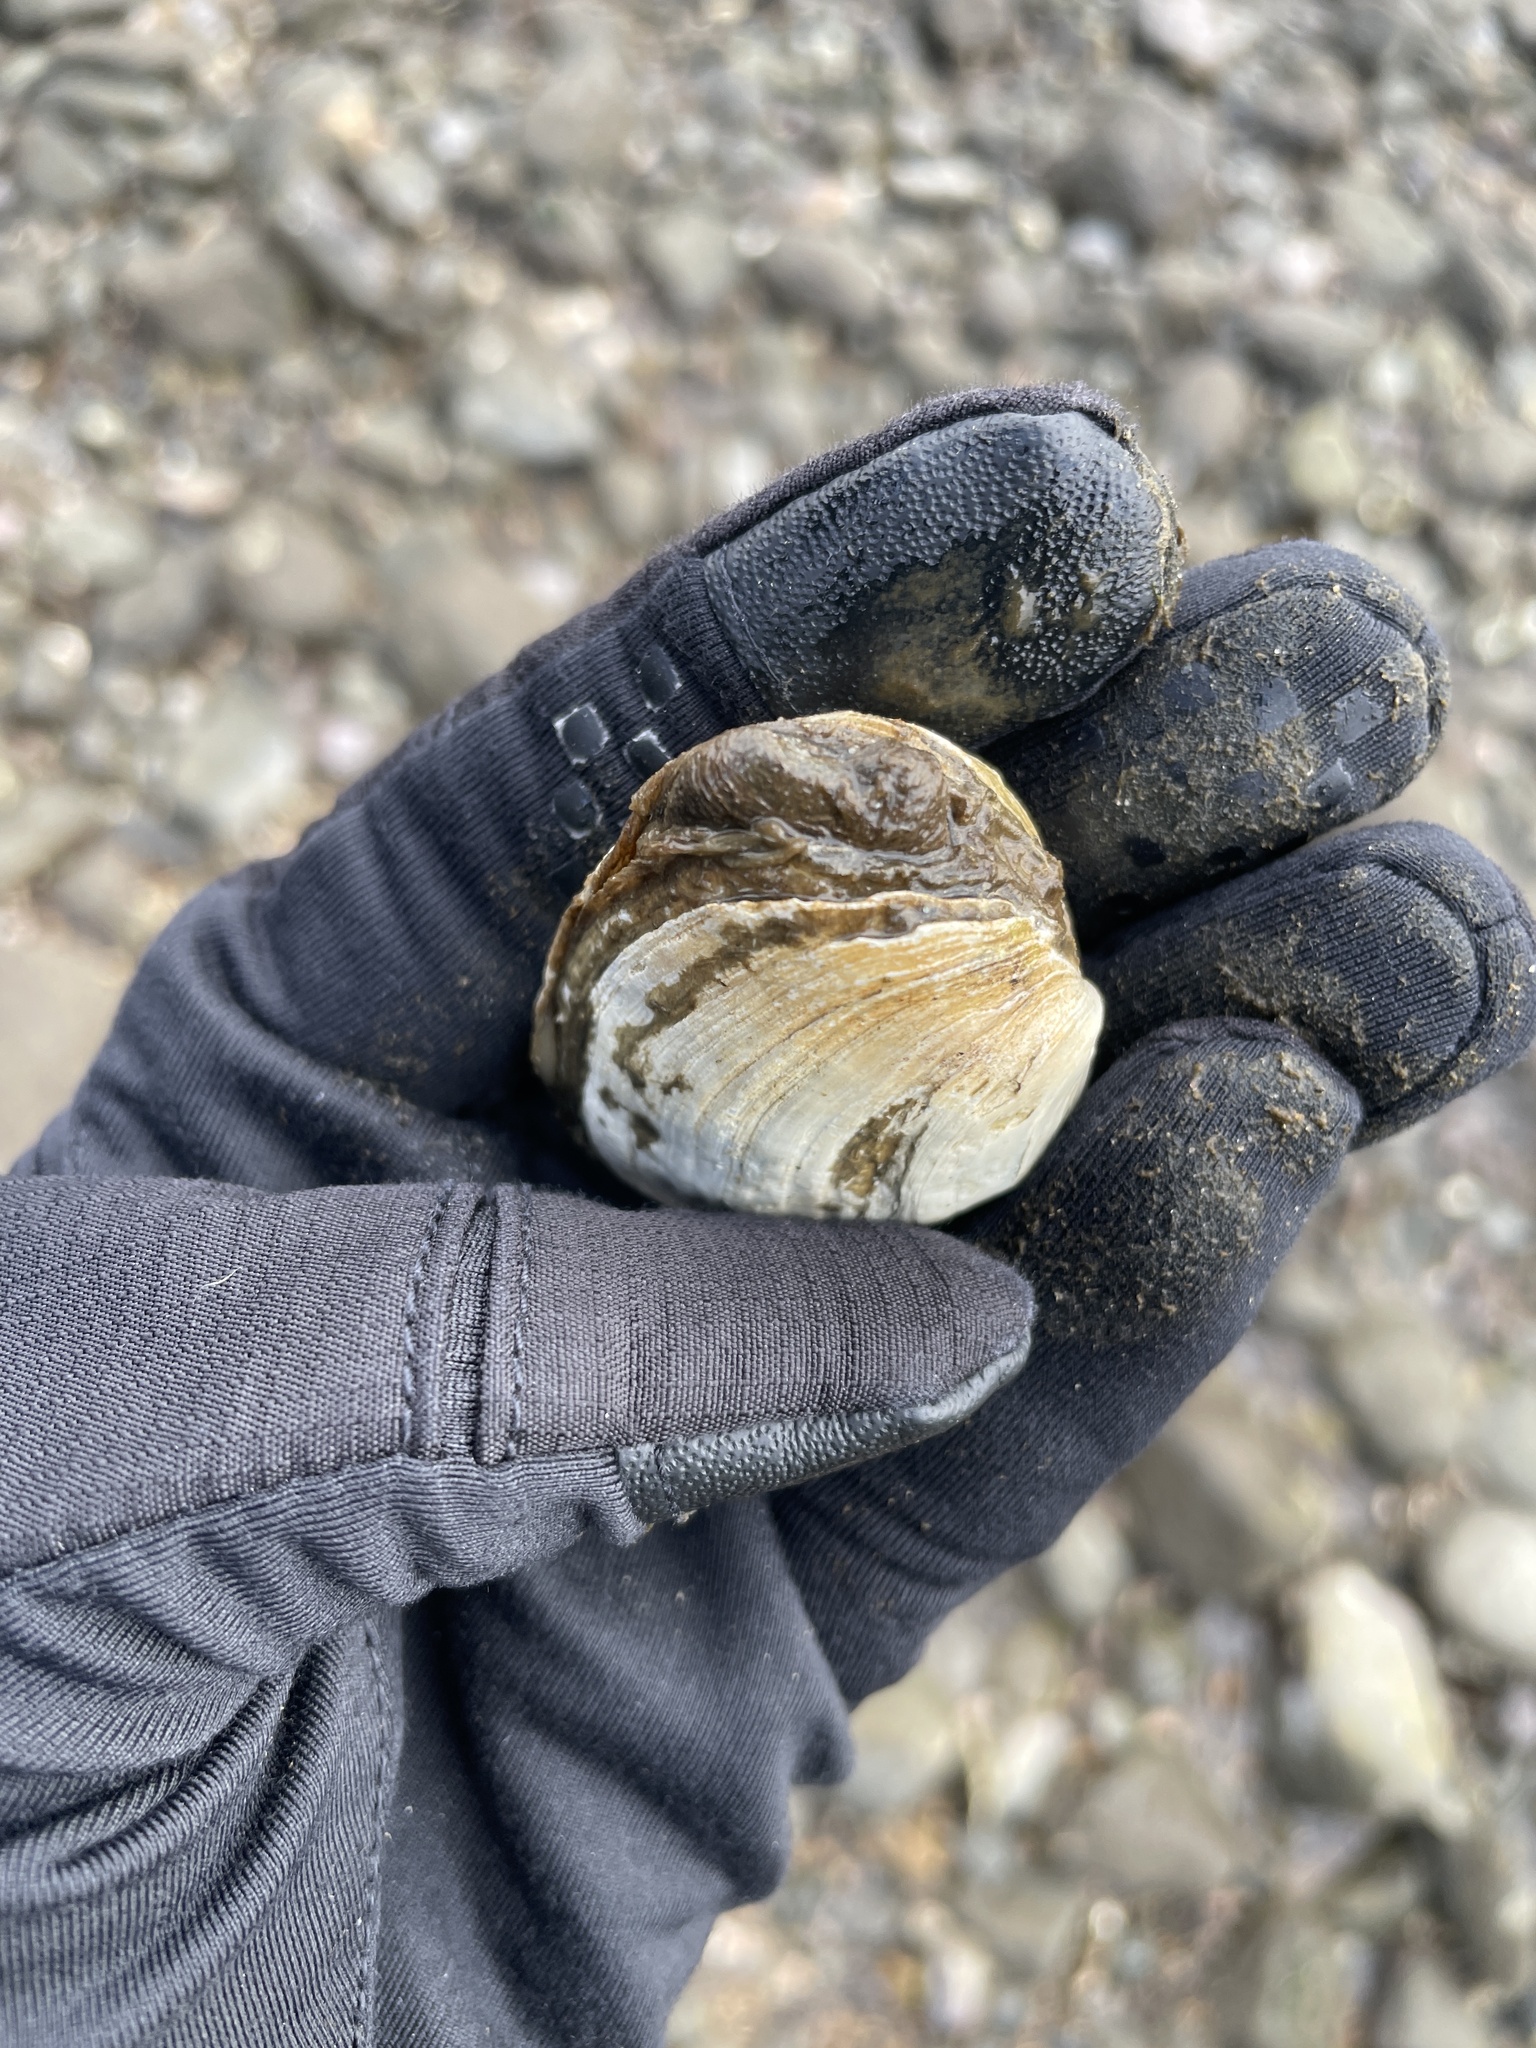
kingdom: Animalia
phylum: Mollusca
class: Bivalvia
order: Myida
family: Myidae
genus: Mya
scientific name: Mya arenaria
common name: Soft-shelled clam
